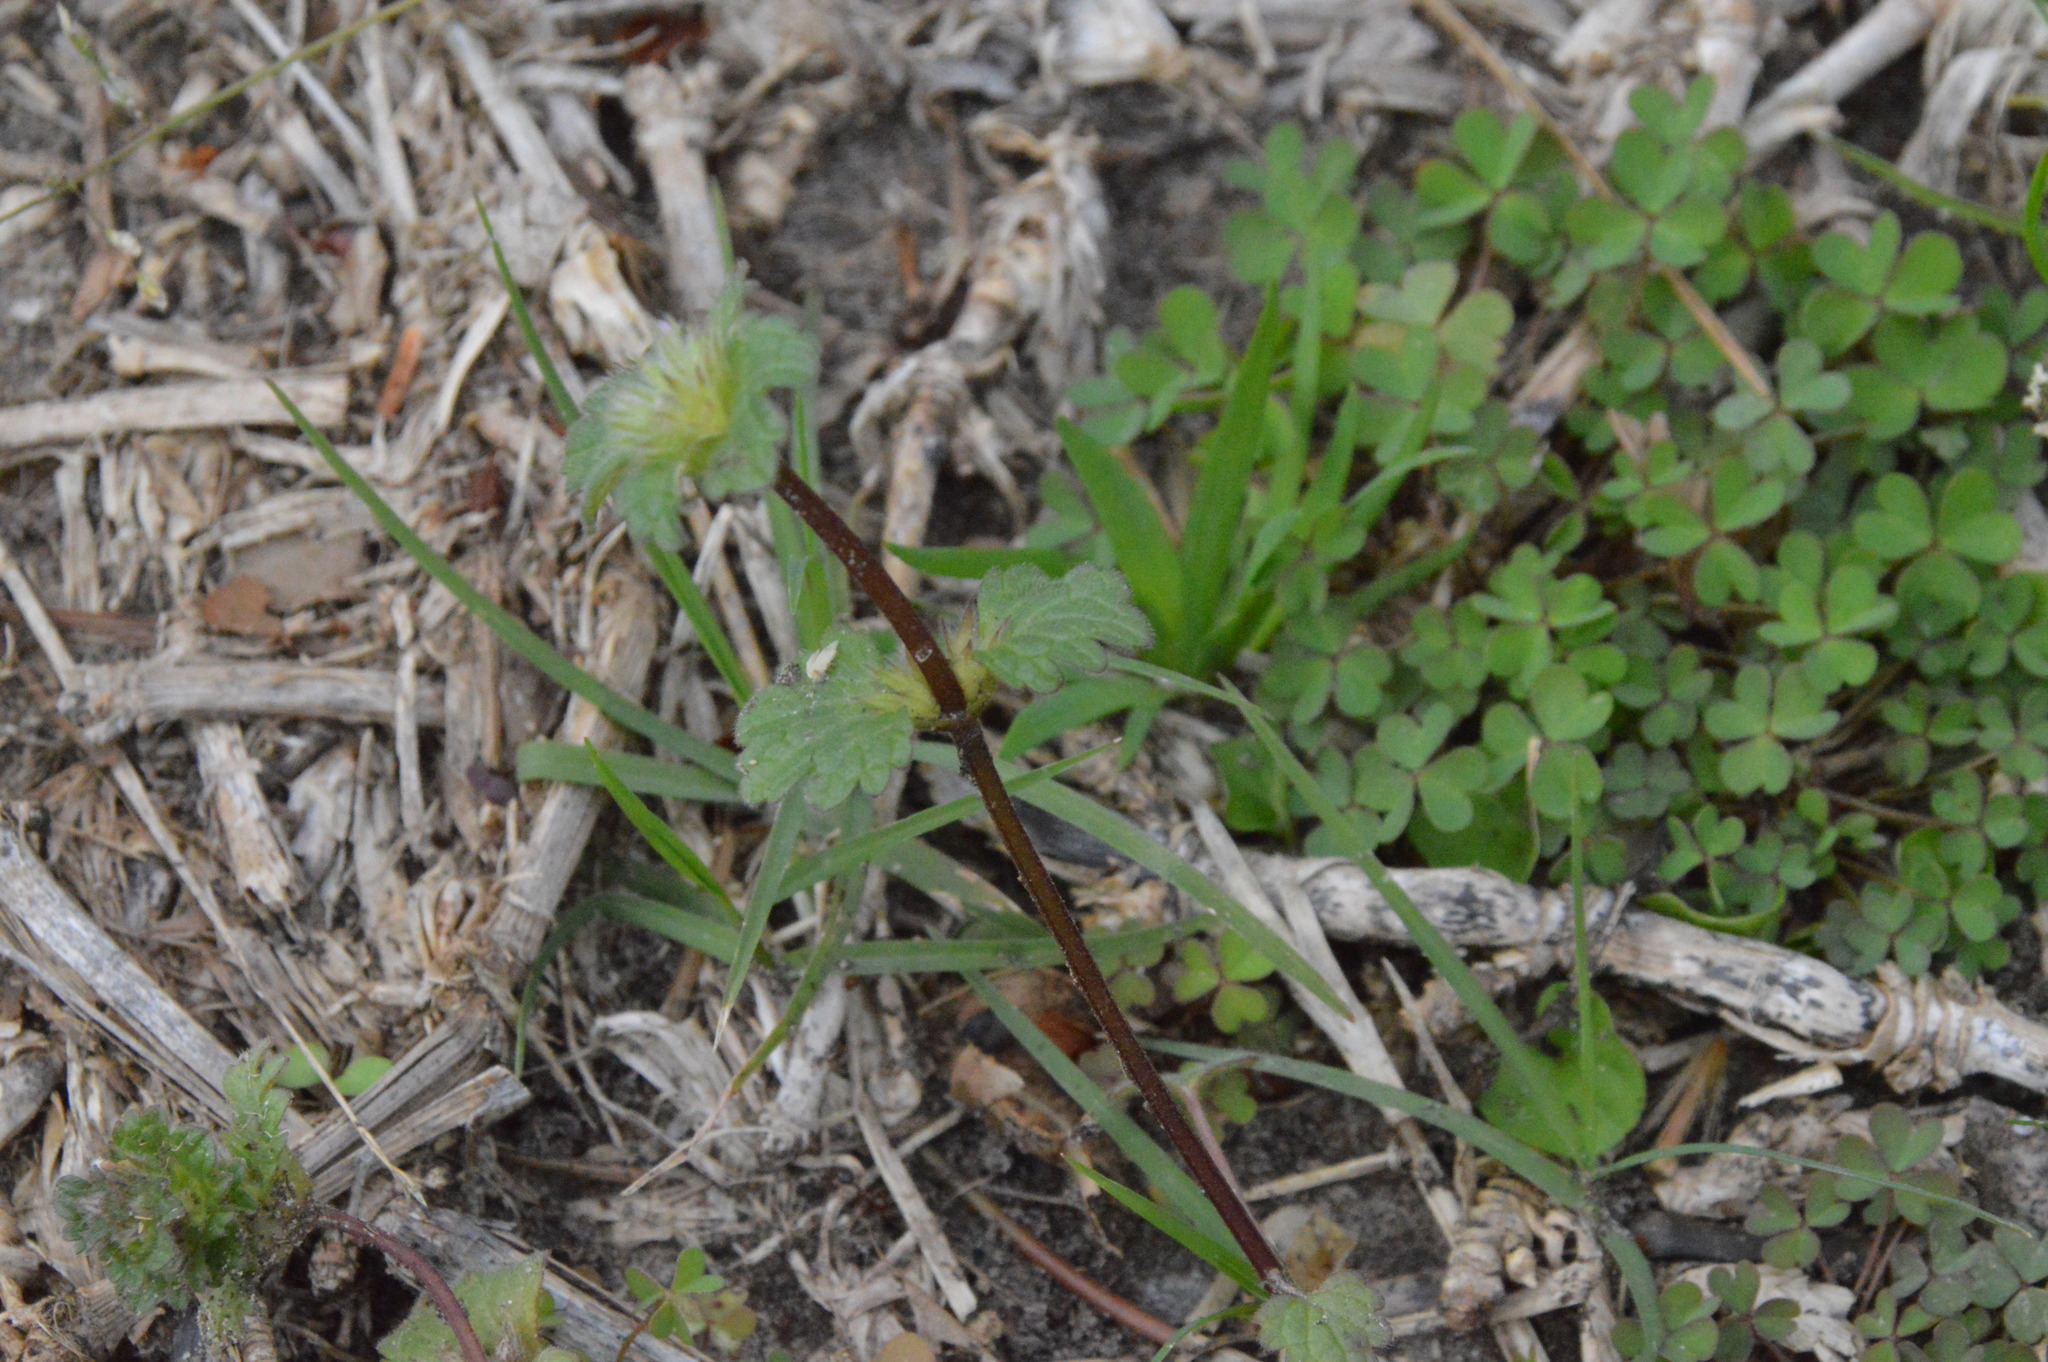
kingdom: Plantae
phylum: Tracheophyta
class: Magnoliopsida
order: Lamiales
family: Lamiaceae
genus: Lamium
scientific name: Lamium amplexicaule
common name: Henbit dead-nettle
